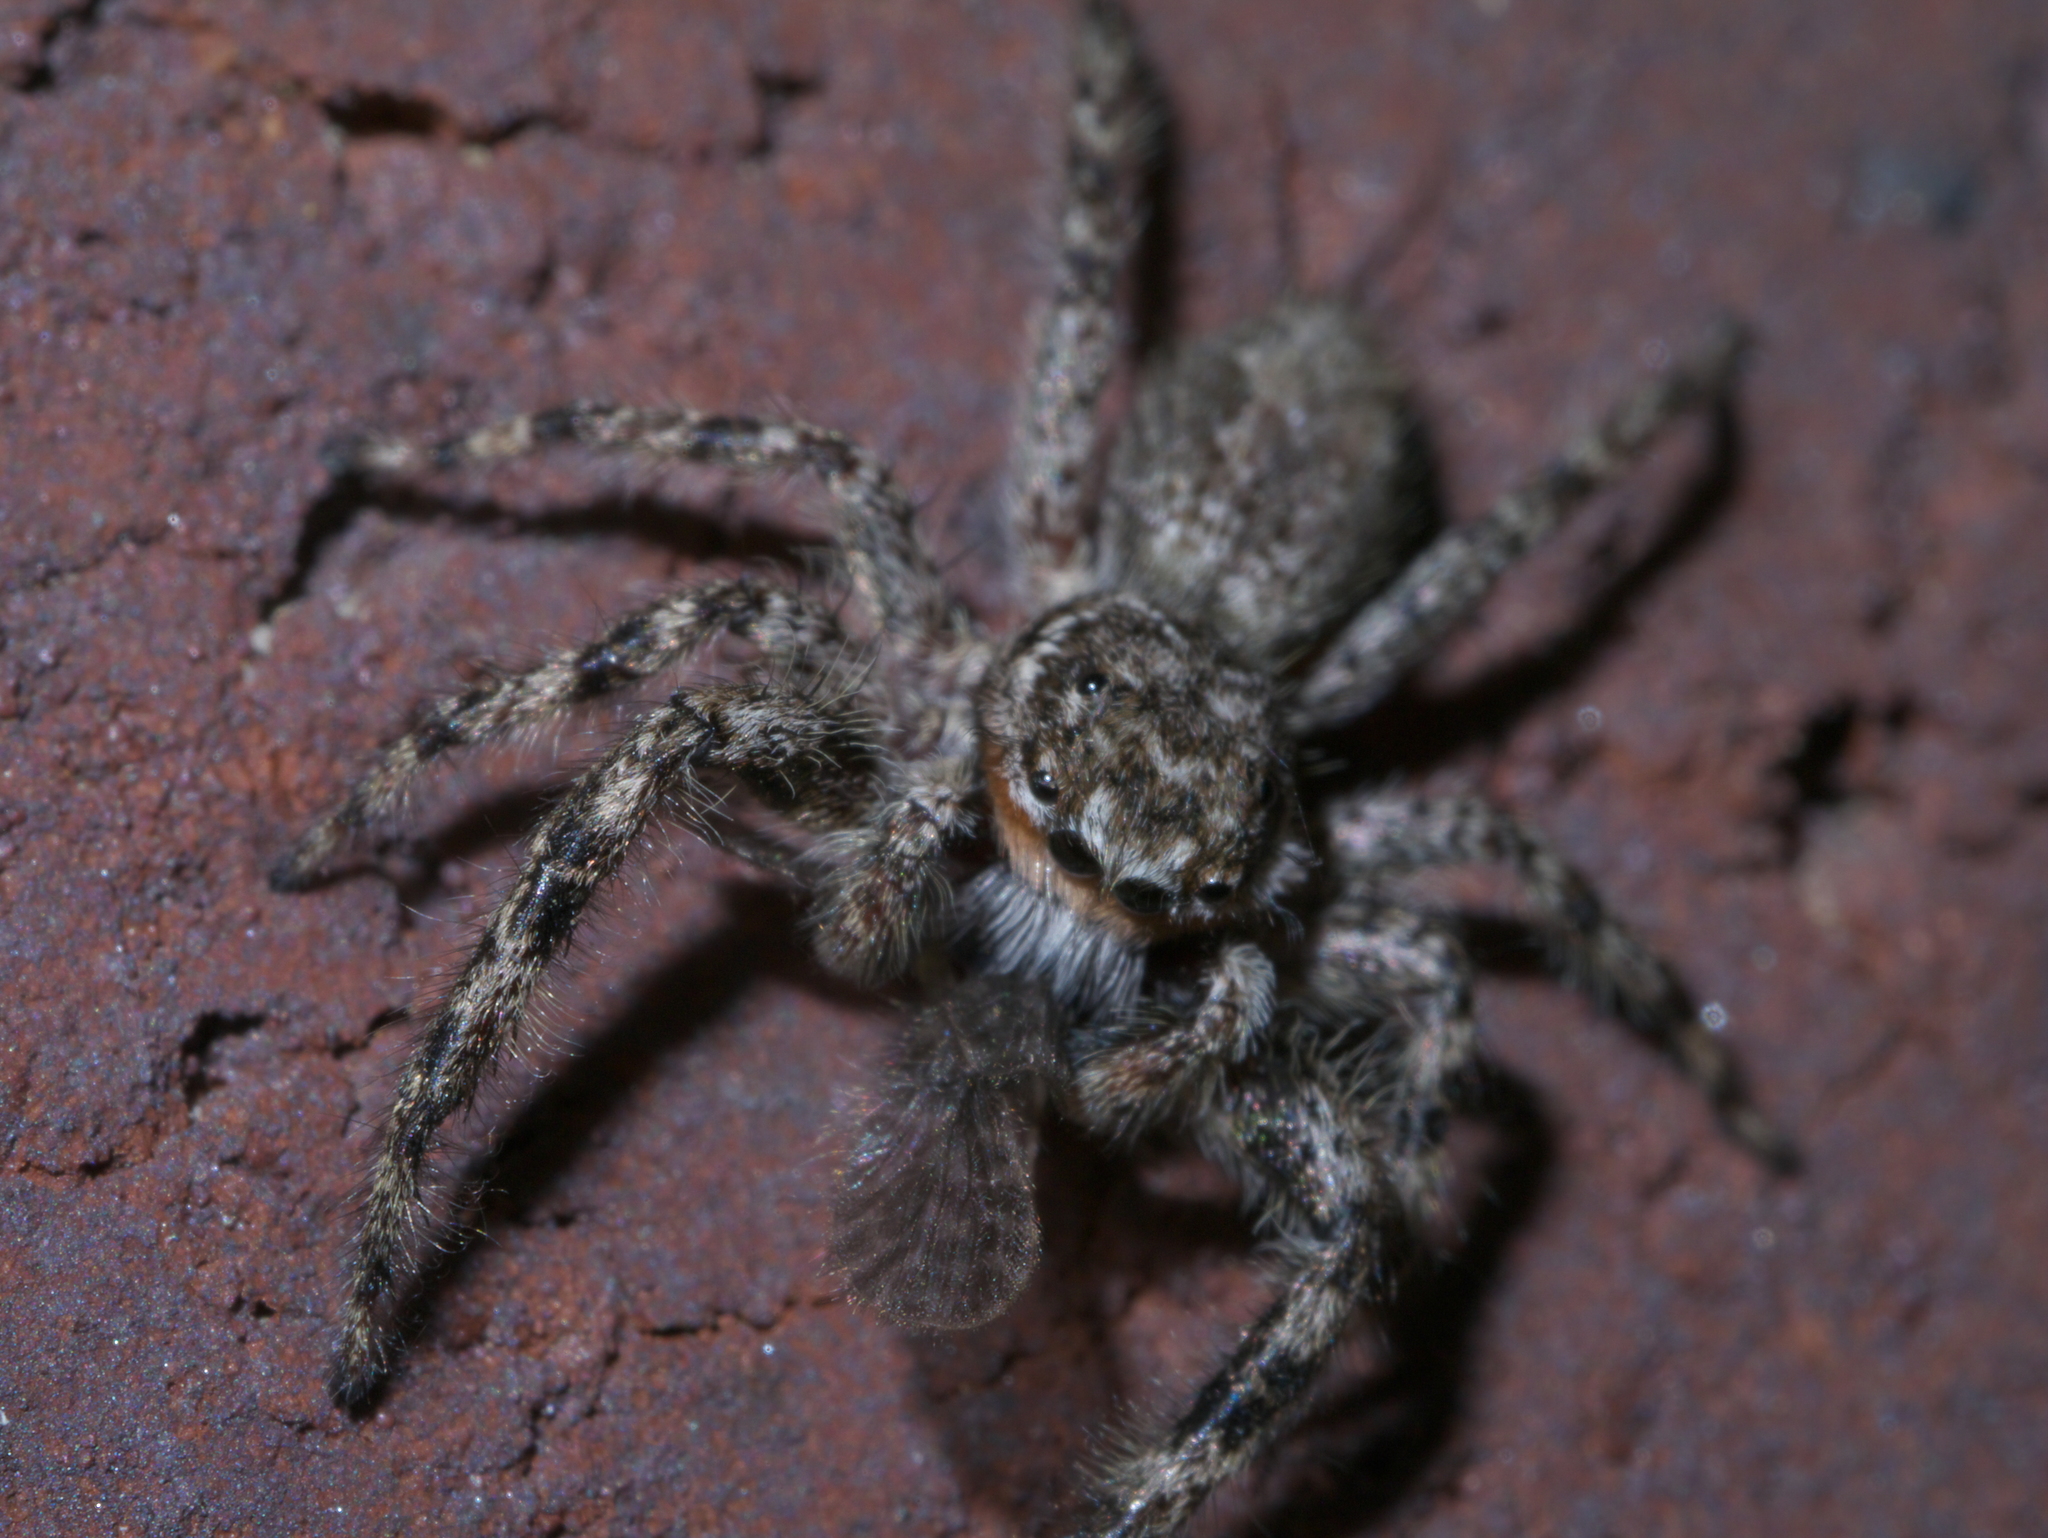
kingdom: Animalia
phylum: Arthropoda
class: Arachnida
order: Araneae
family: Salticidae
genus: Platycryptus
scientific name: Platycryptus undatus
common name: Tan jumping spider
